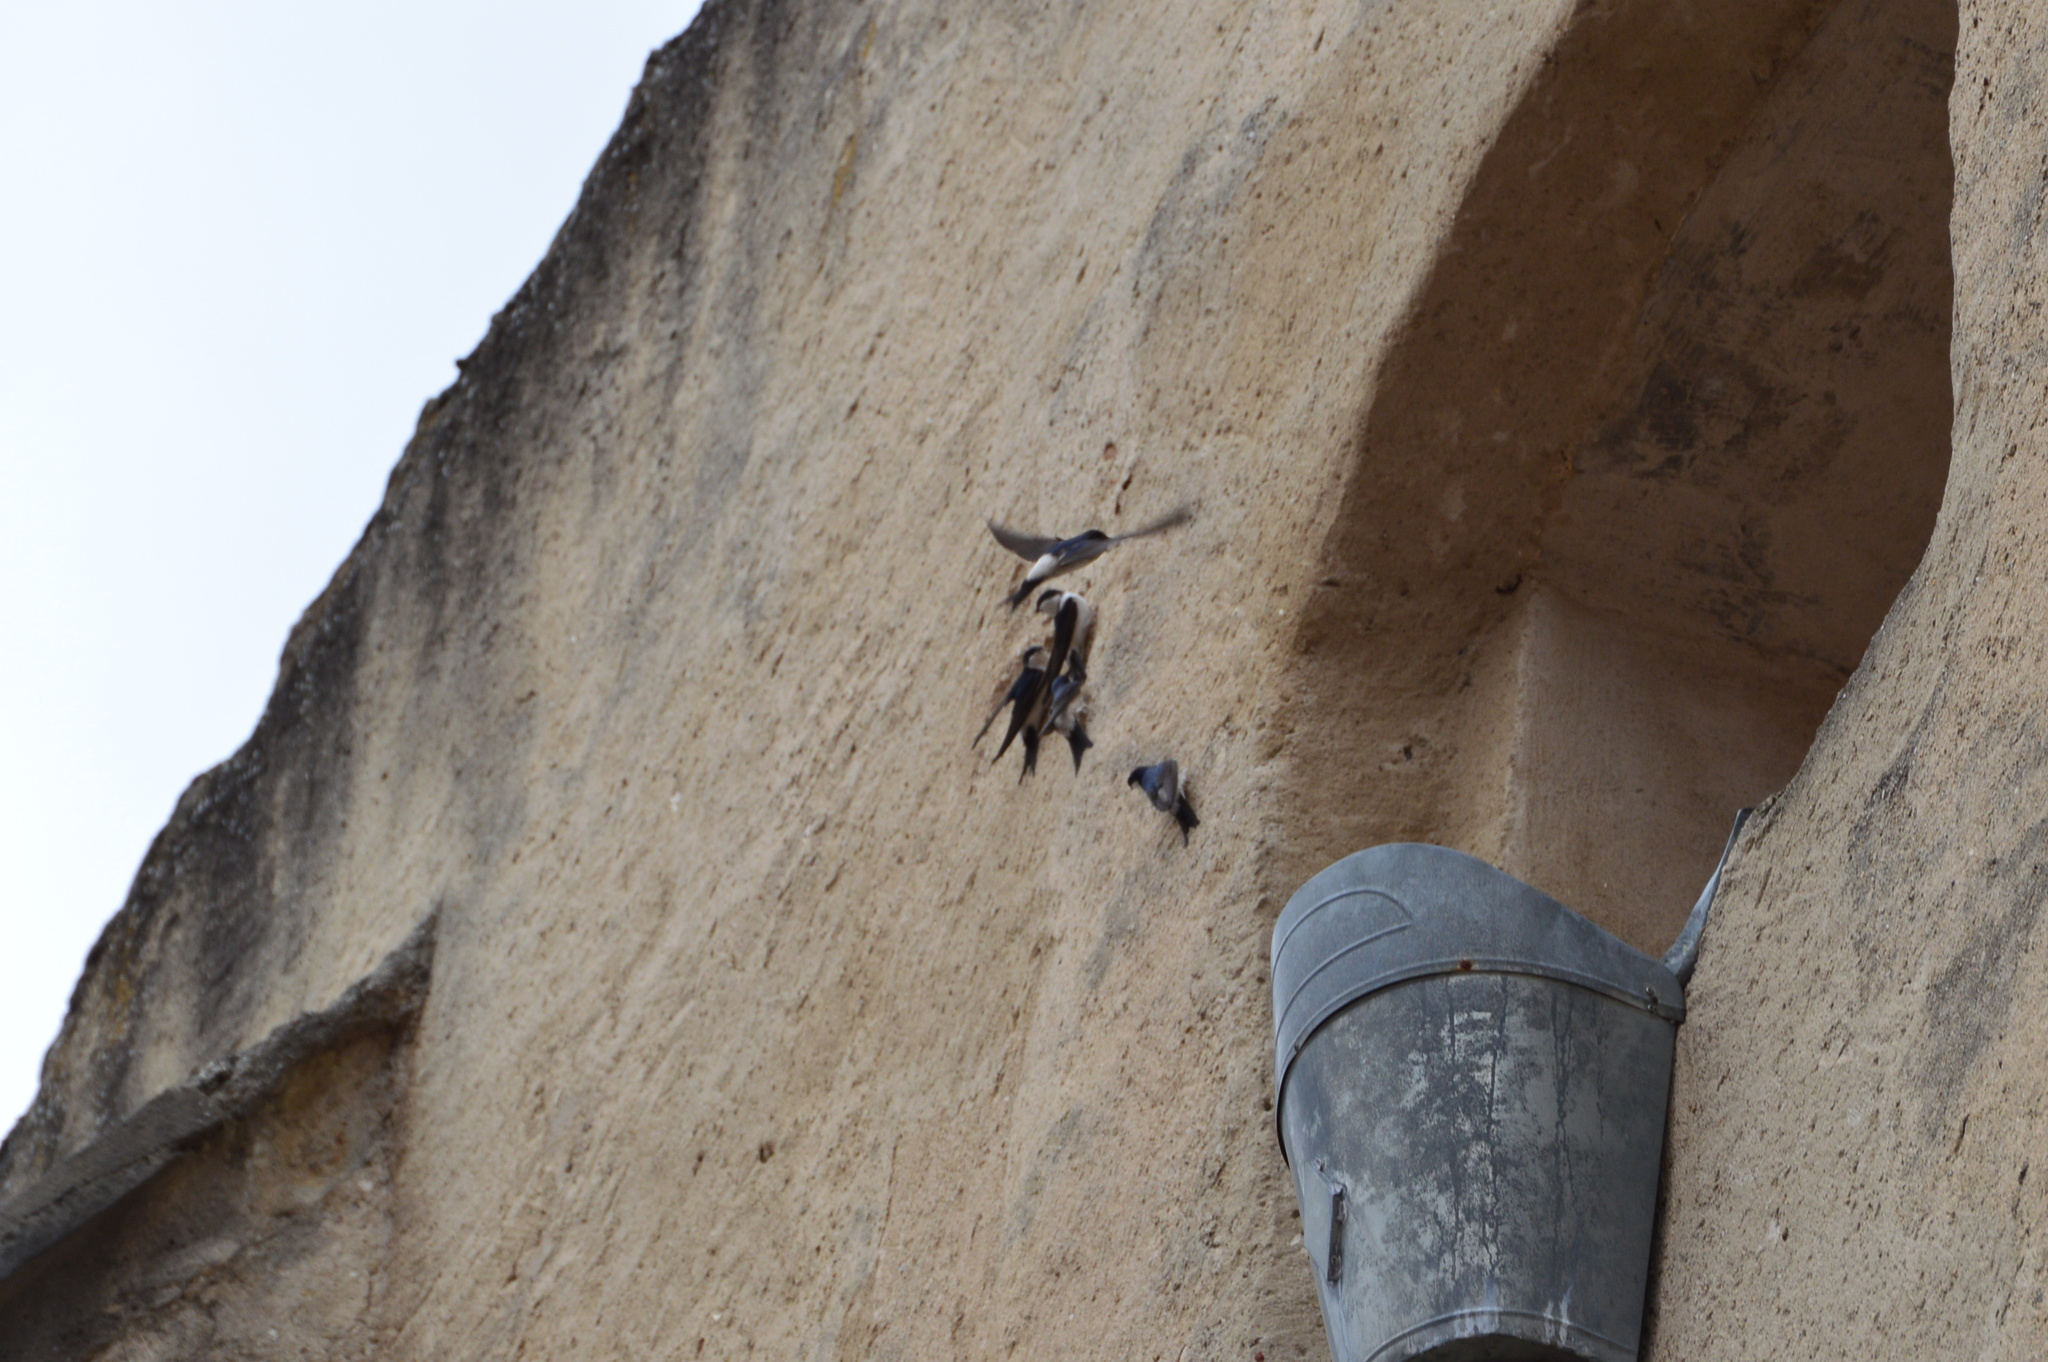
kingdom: Animalia
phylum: Chordata
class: Aves
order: Passeriformes
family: Hirundinidae
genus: Delichon
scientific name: Delichon urbicum
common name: Common house martin
